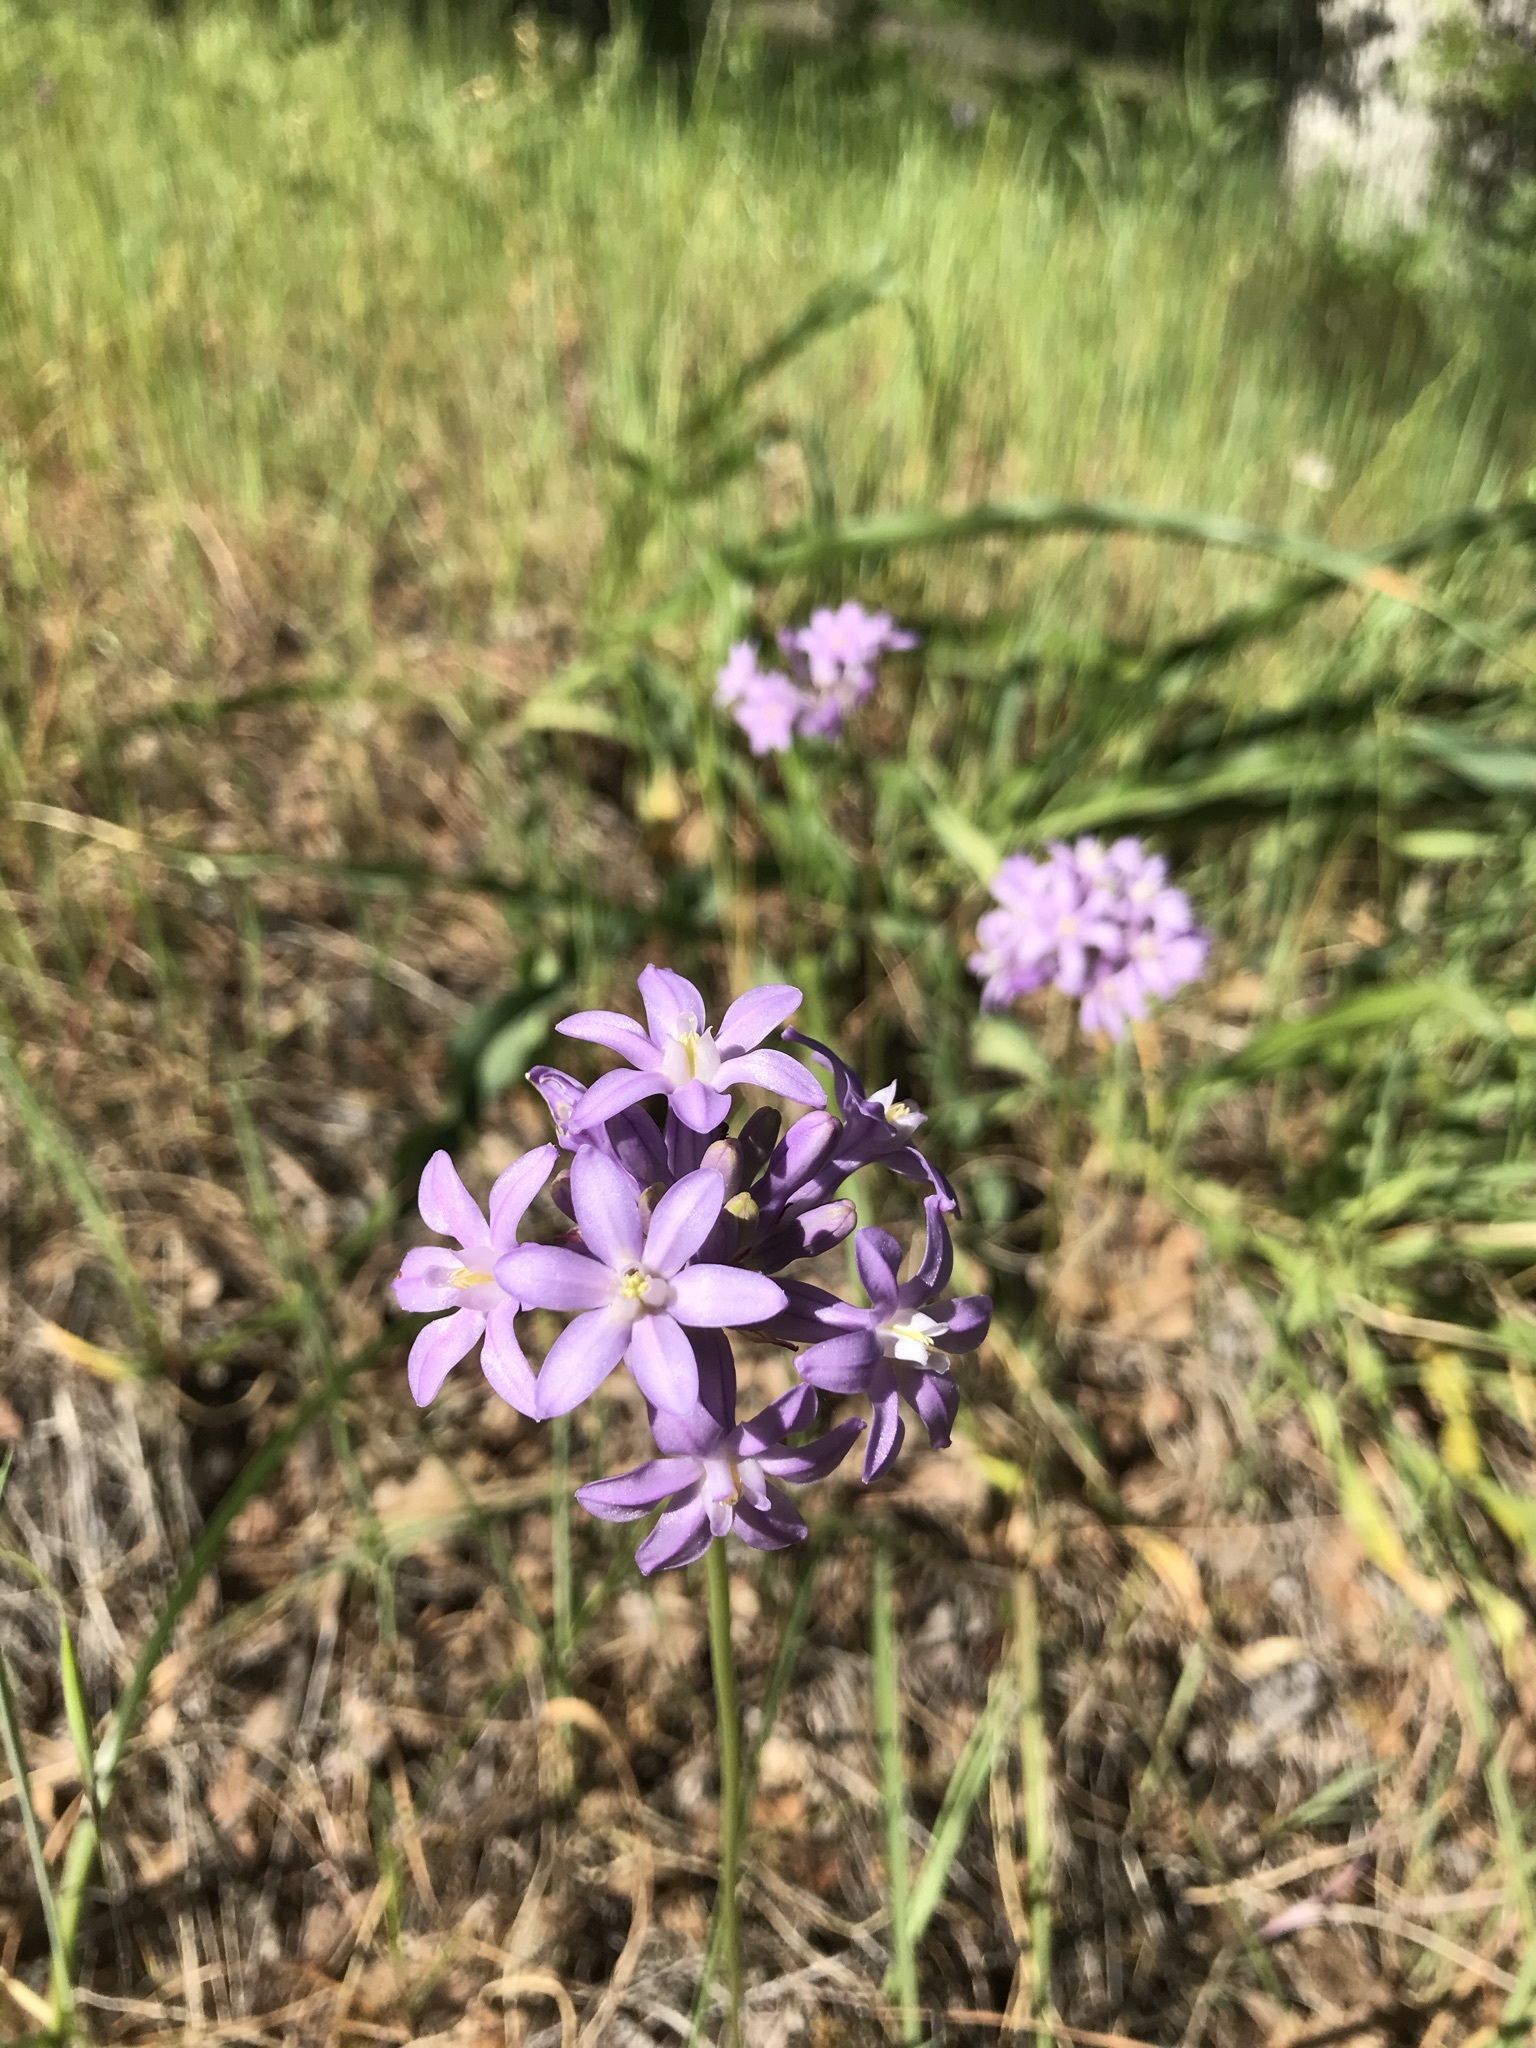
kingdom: Plantae
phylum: Tracheophyta
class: Liliopsida
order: Asparagales
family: Asparagaceae
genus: Dichelostemma
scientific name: Dichelostemma multiflorum
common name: Round-tooth ookow
